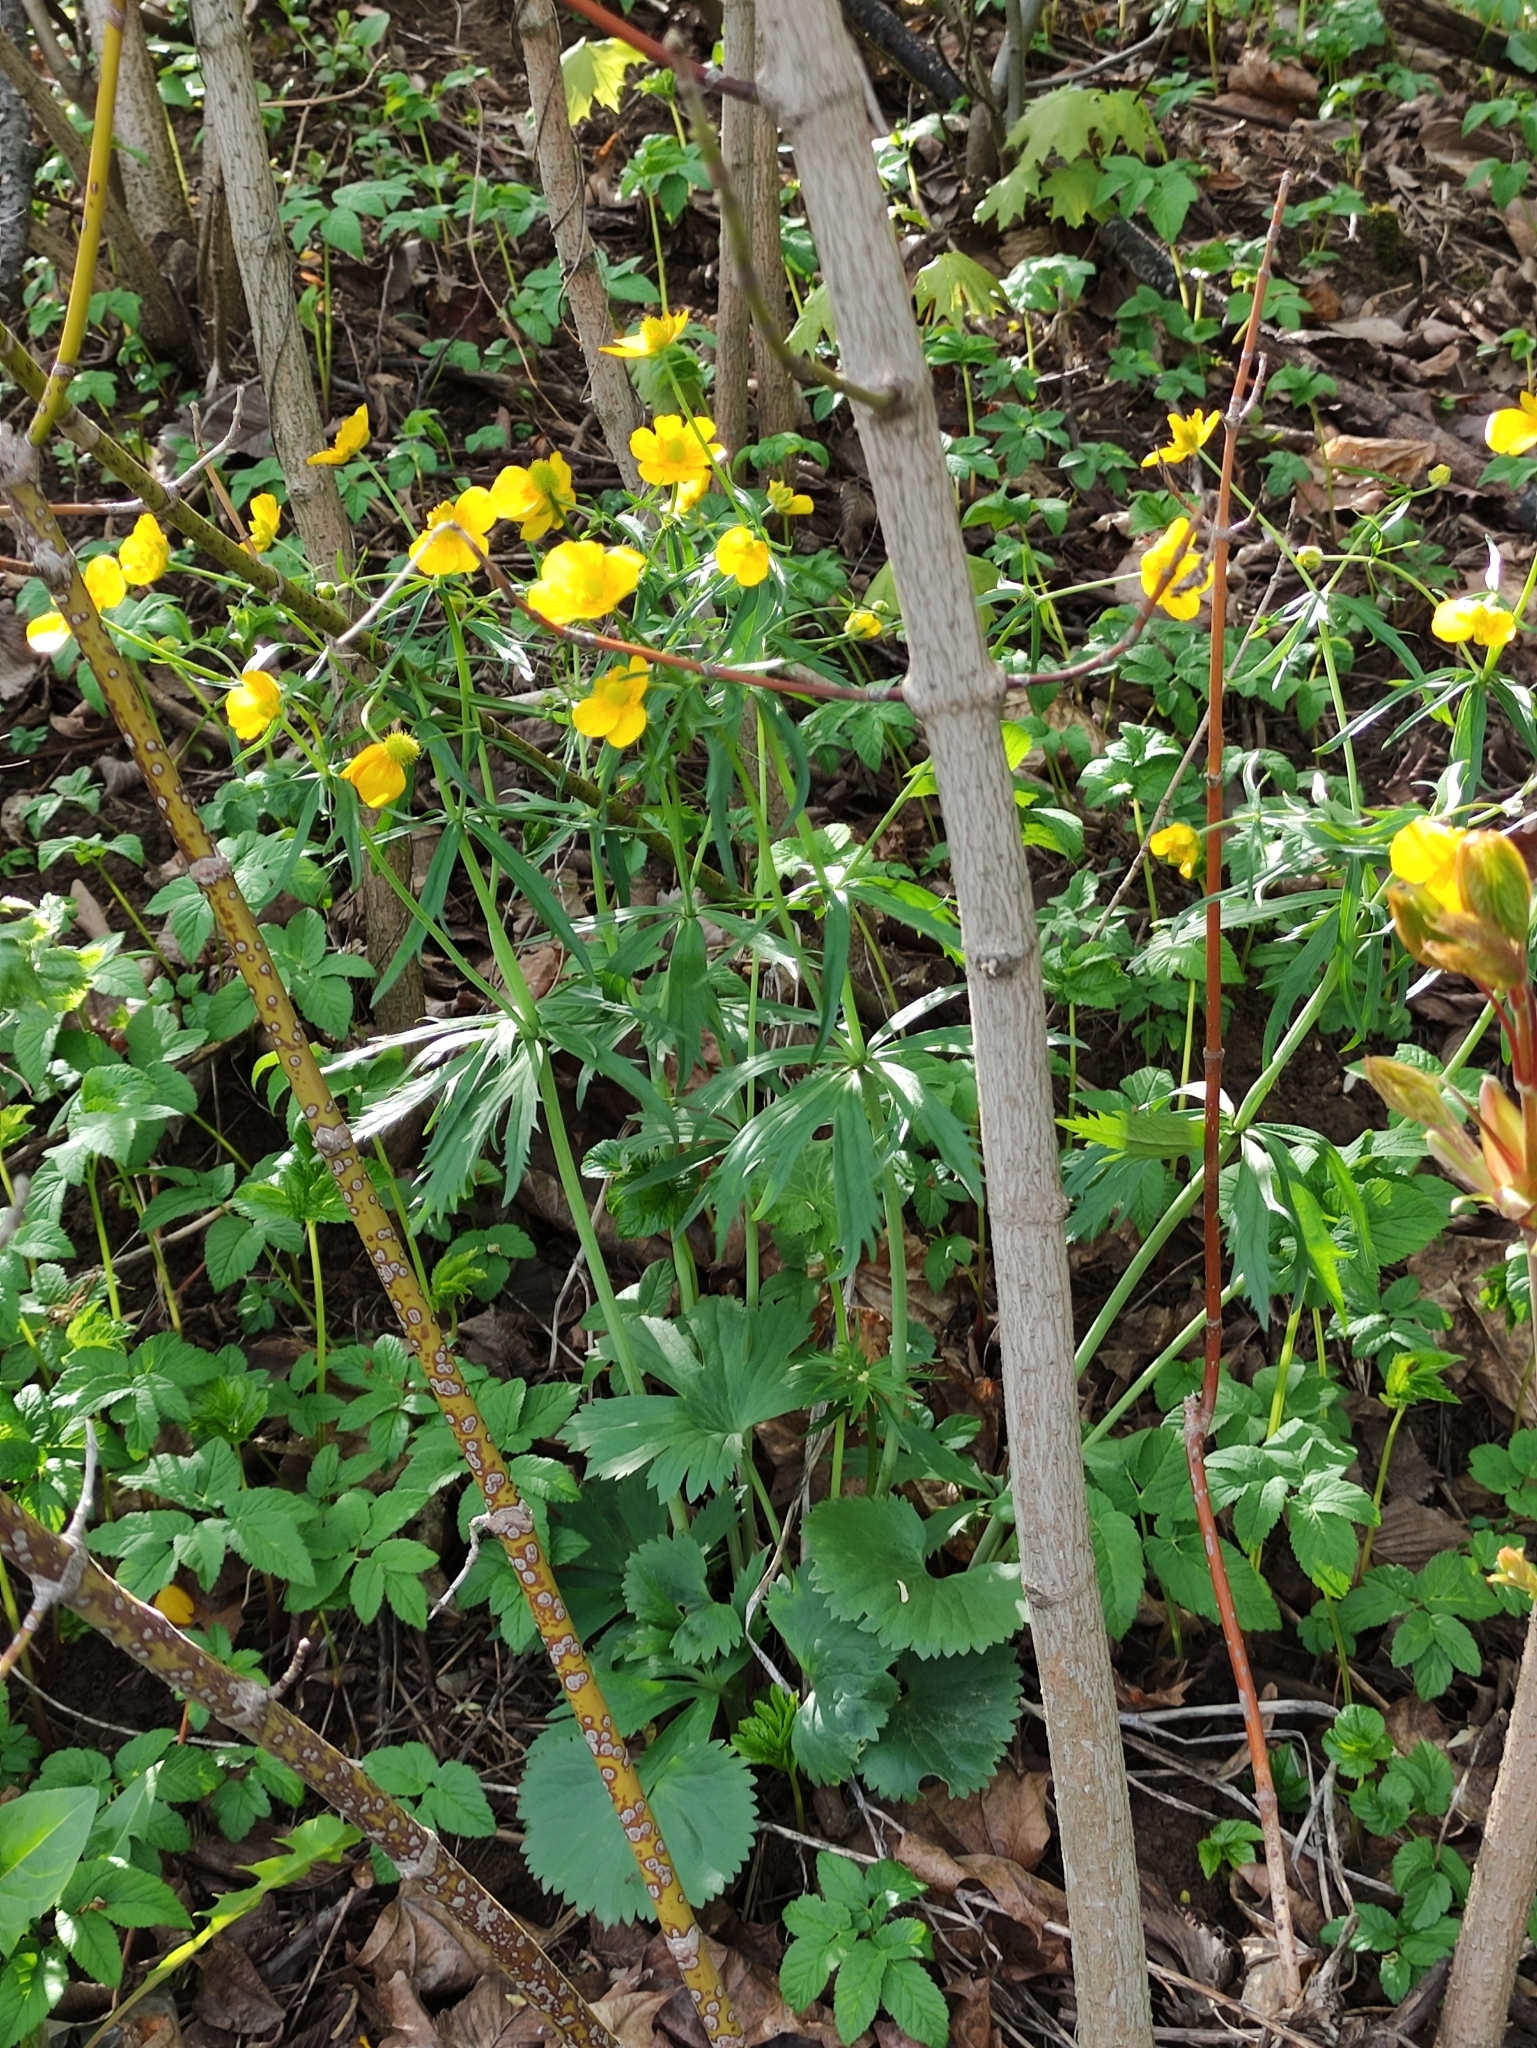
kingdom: Plantae
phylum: Tracheophyta
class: Magnoliopsida
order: Ranunculales
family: Ranunculaceae
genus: Ranunculus
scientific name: Ranunculus cassubicus
